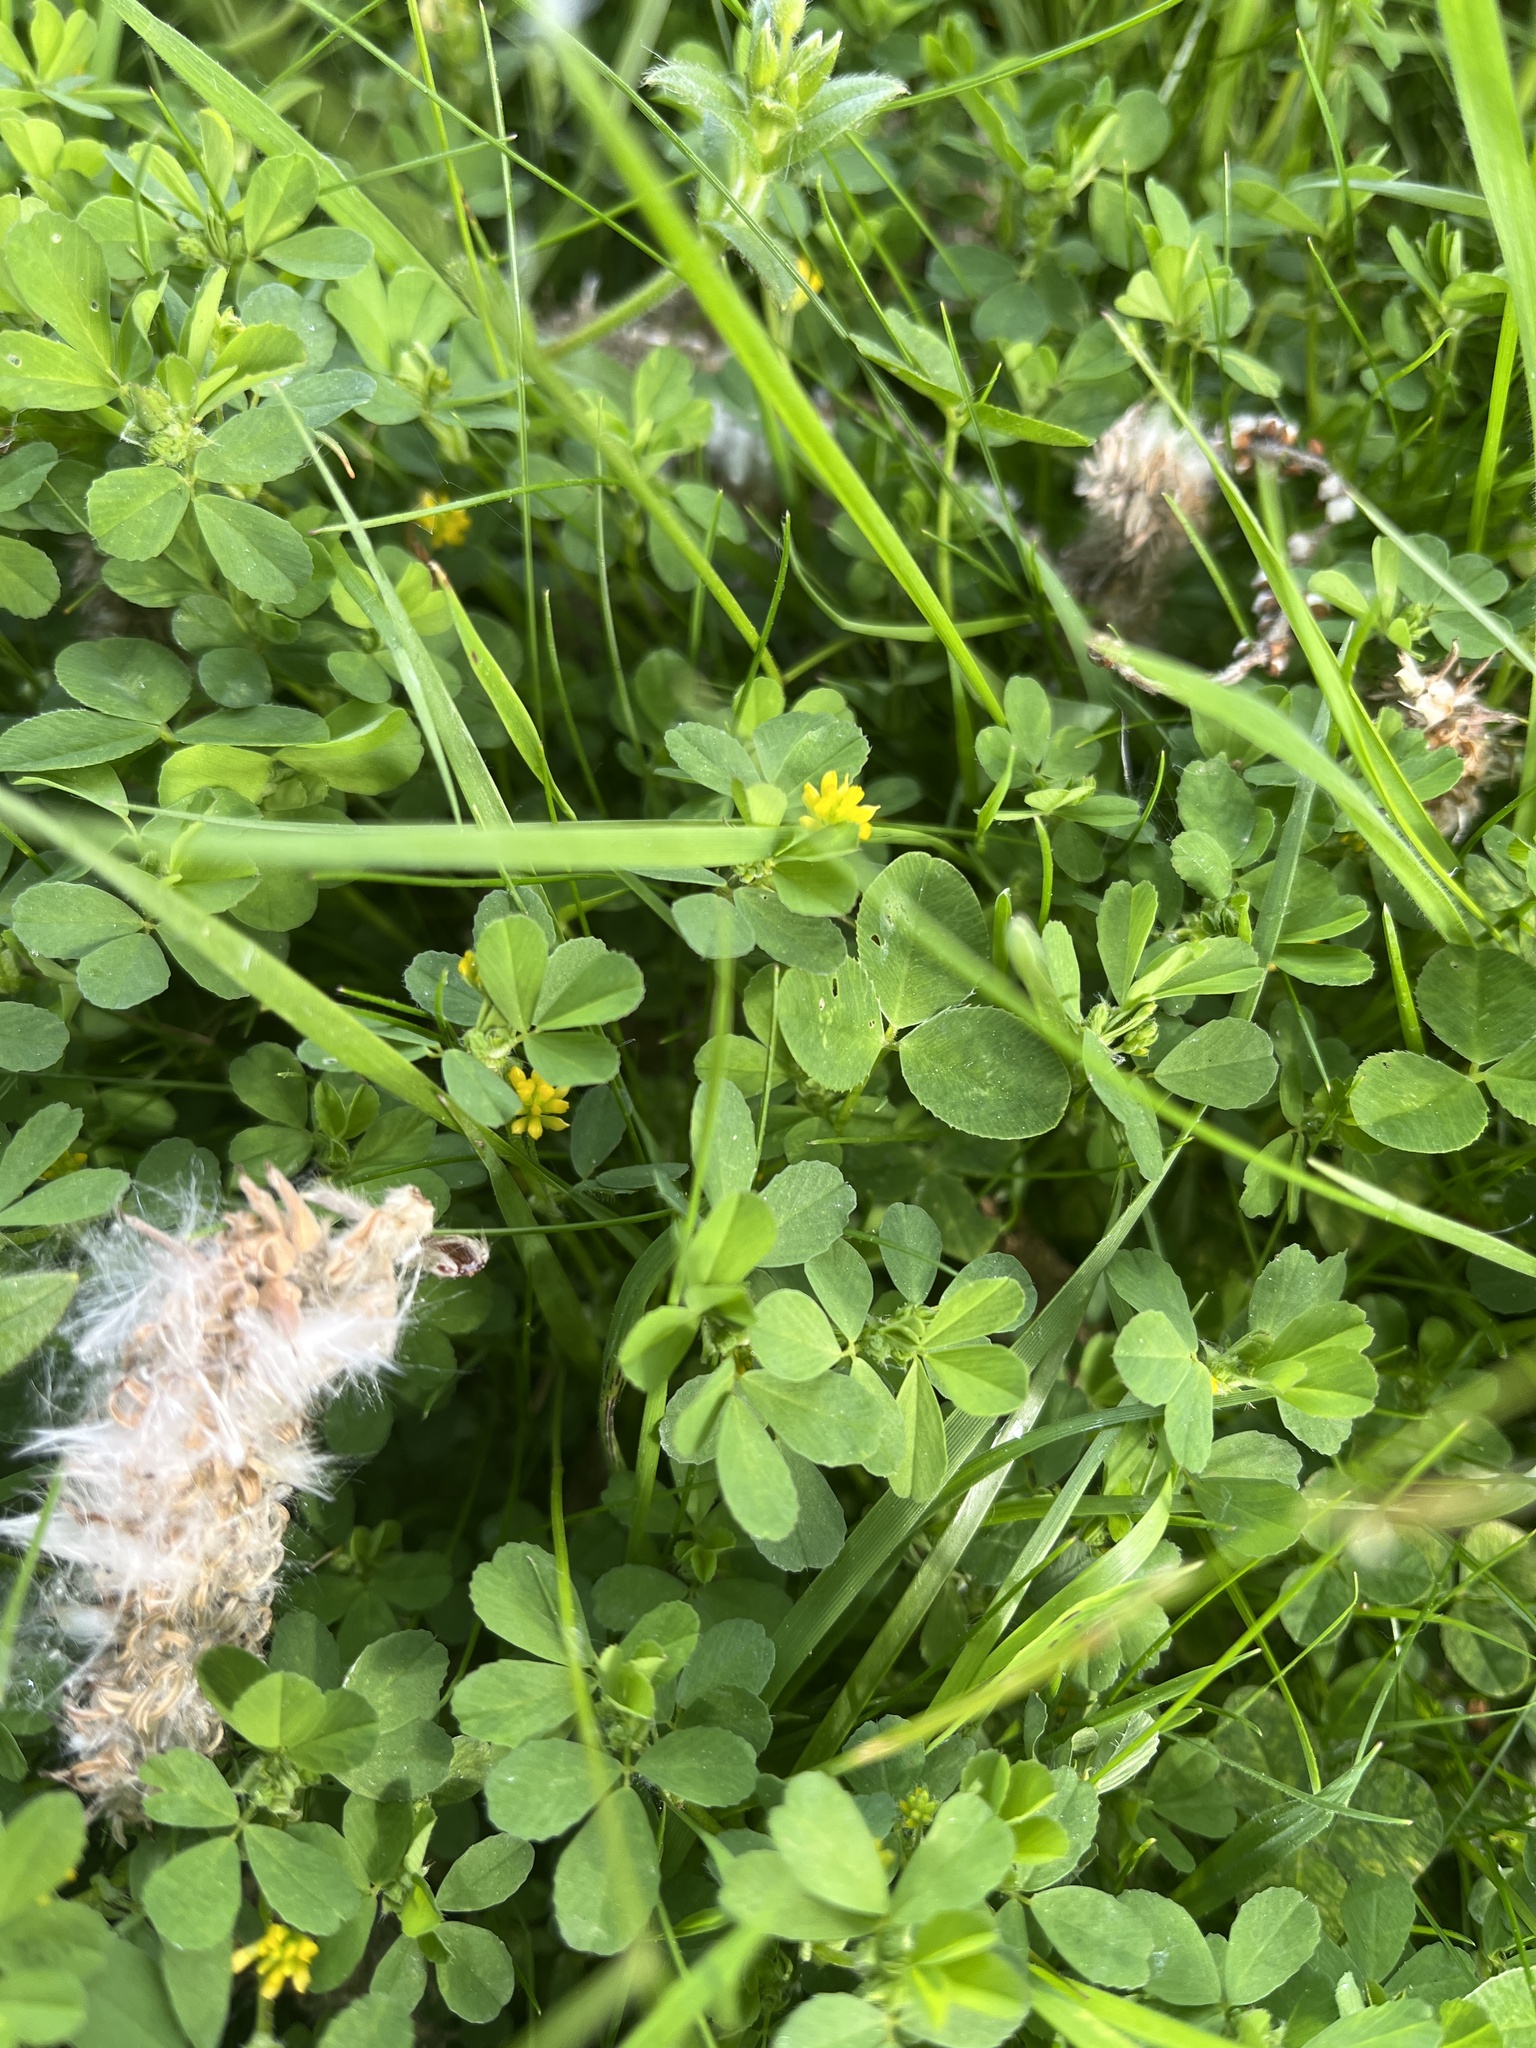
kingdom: Plantae
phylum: Tracheophyta
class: Magnoliopsida
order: Fabales
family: Fabaceae
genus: Trifolium
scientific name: Trifolium dubium
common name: Suckling clover
